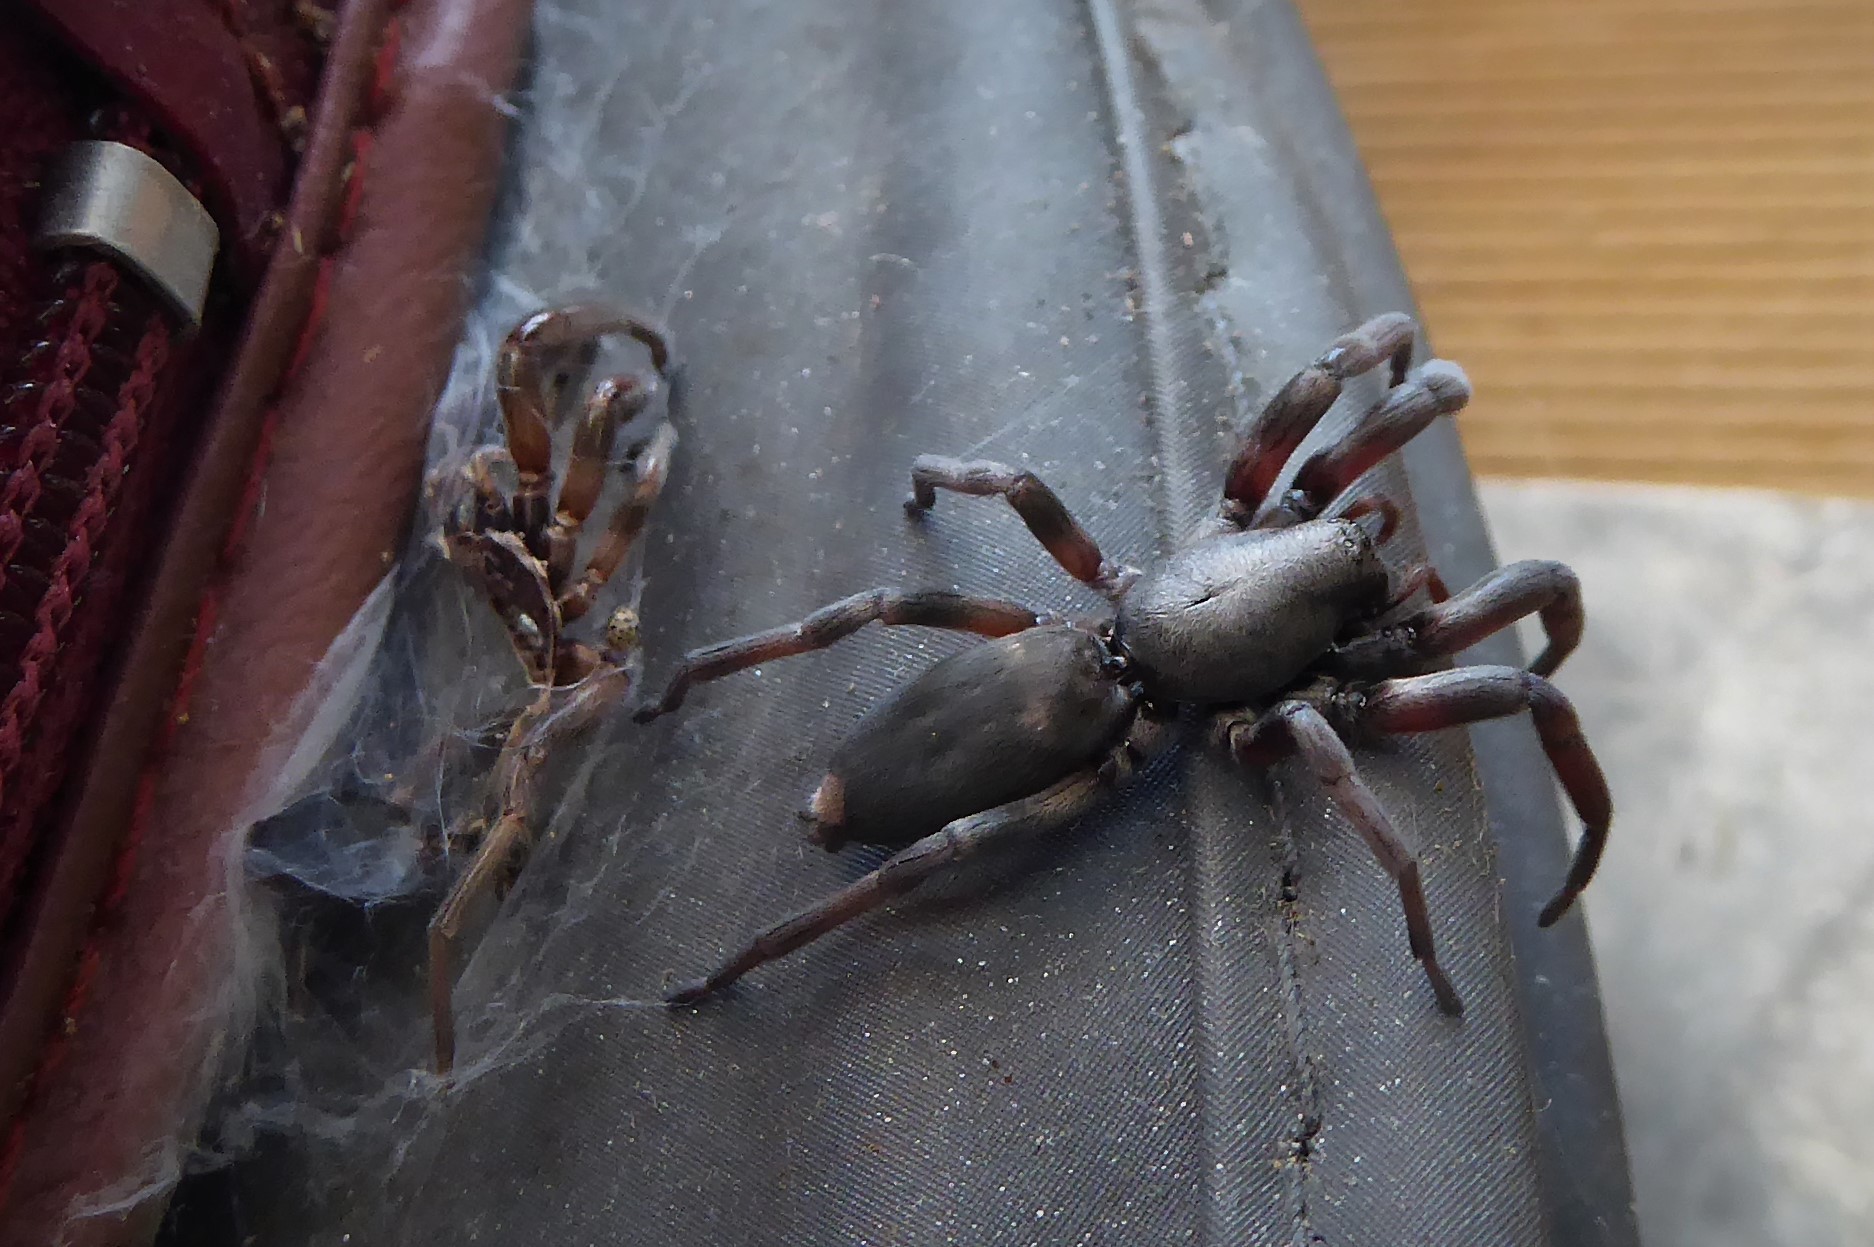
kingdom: Animalia
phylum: Arthropoda
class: Arachnida
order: Araneae
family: Lamponidae
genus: Lampona
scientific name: Lampona cylindrata
